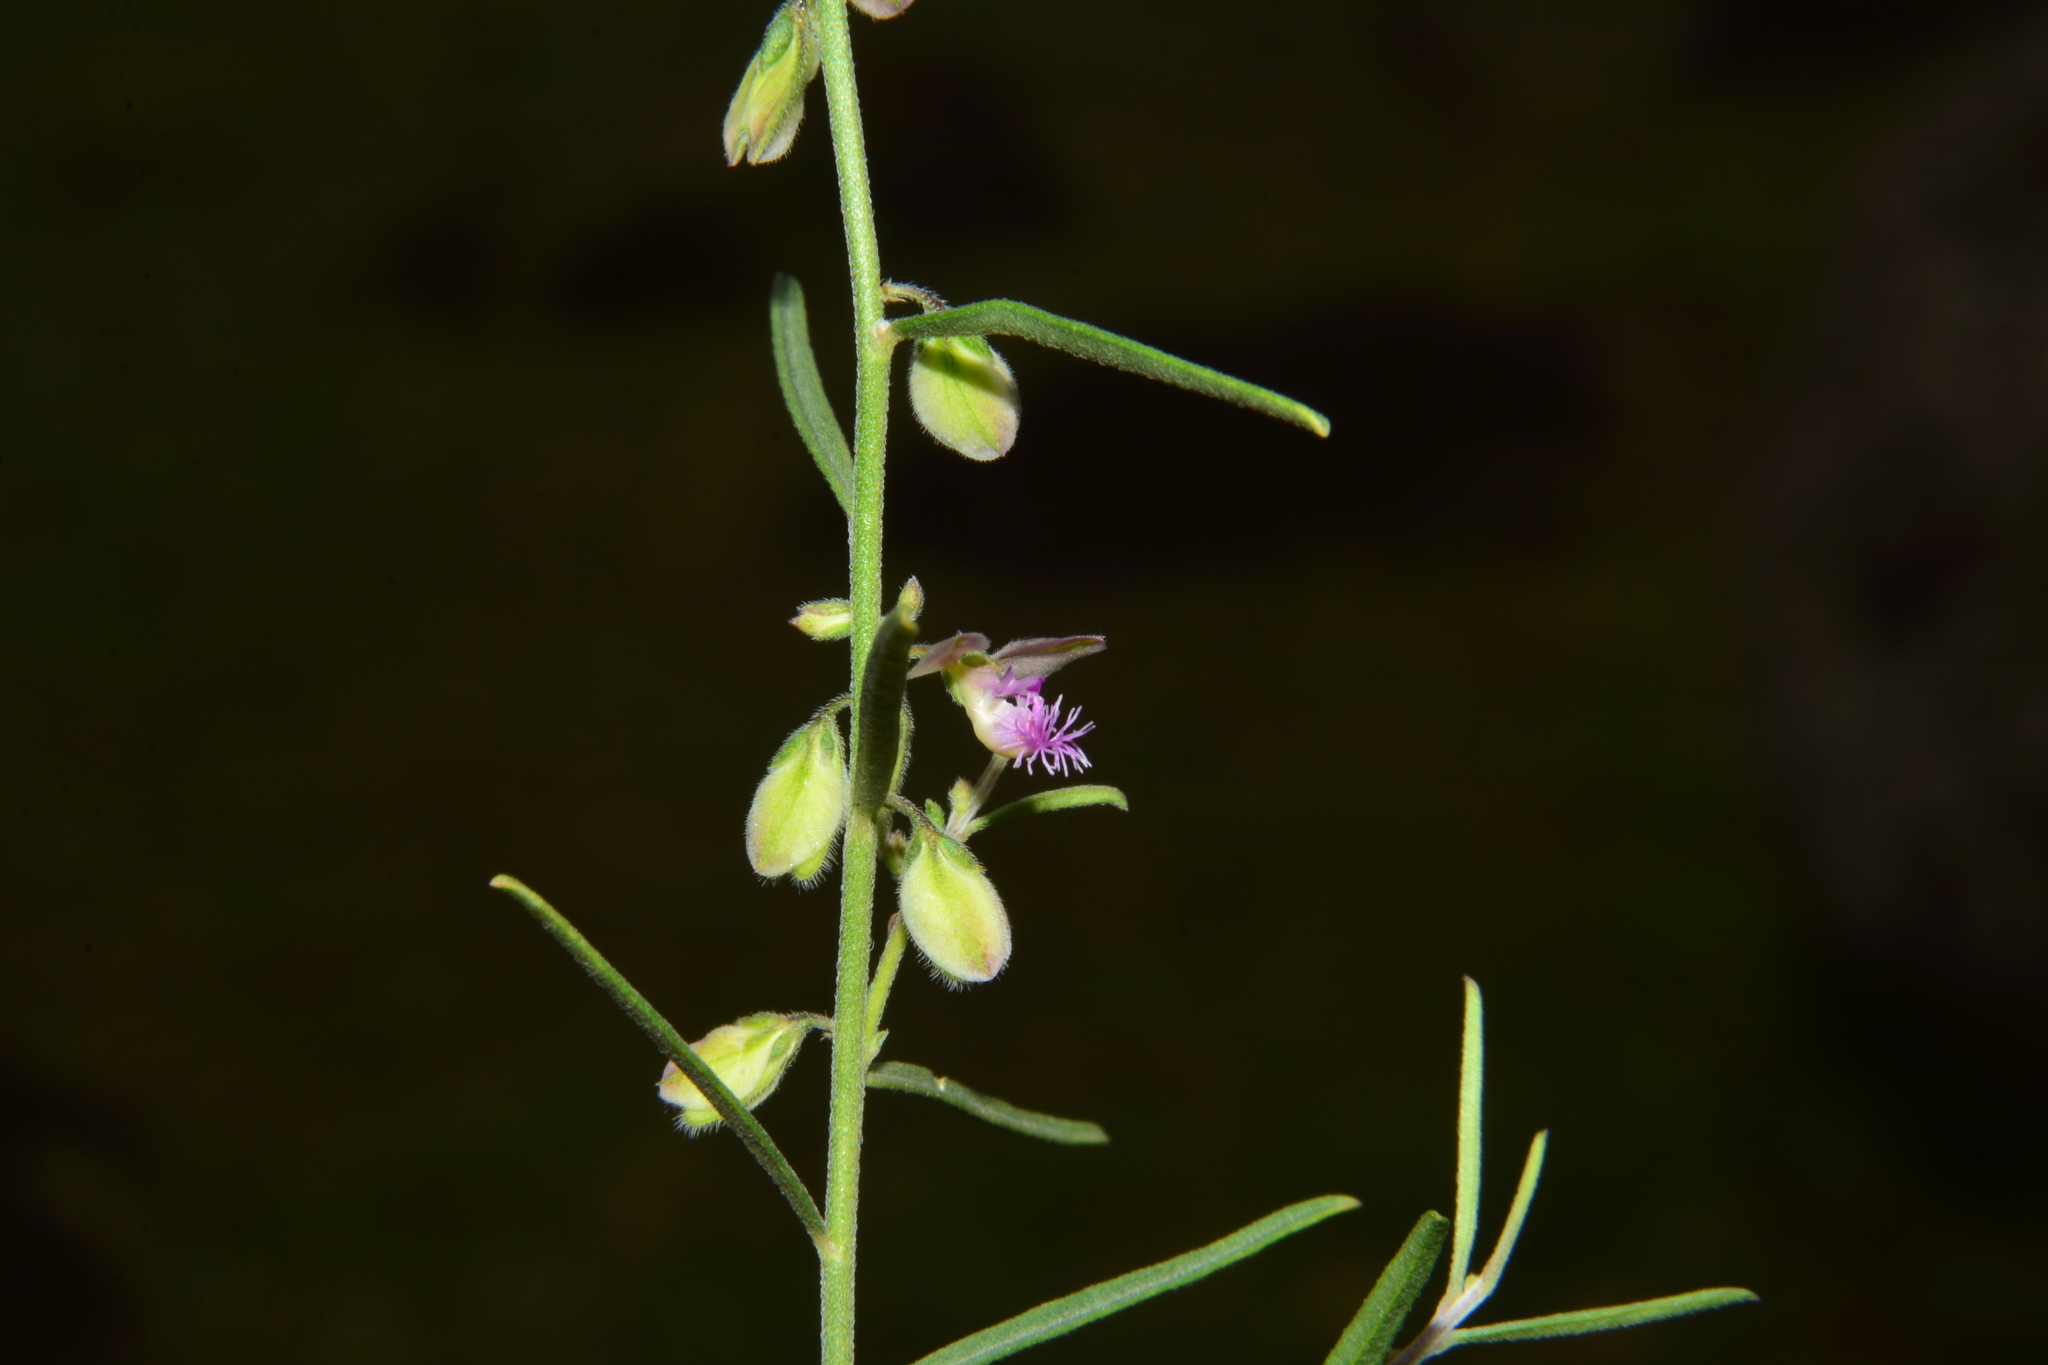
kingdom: Plantae
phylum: Tracheophyta
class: Magnoliopsida
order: Fabales
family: Polygalaceae
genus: Polygala
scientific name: Polygala erioptera
